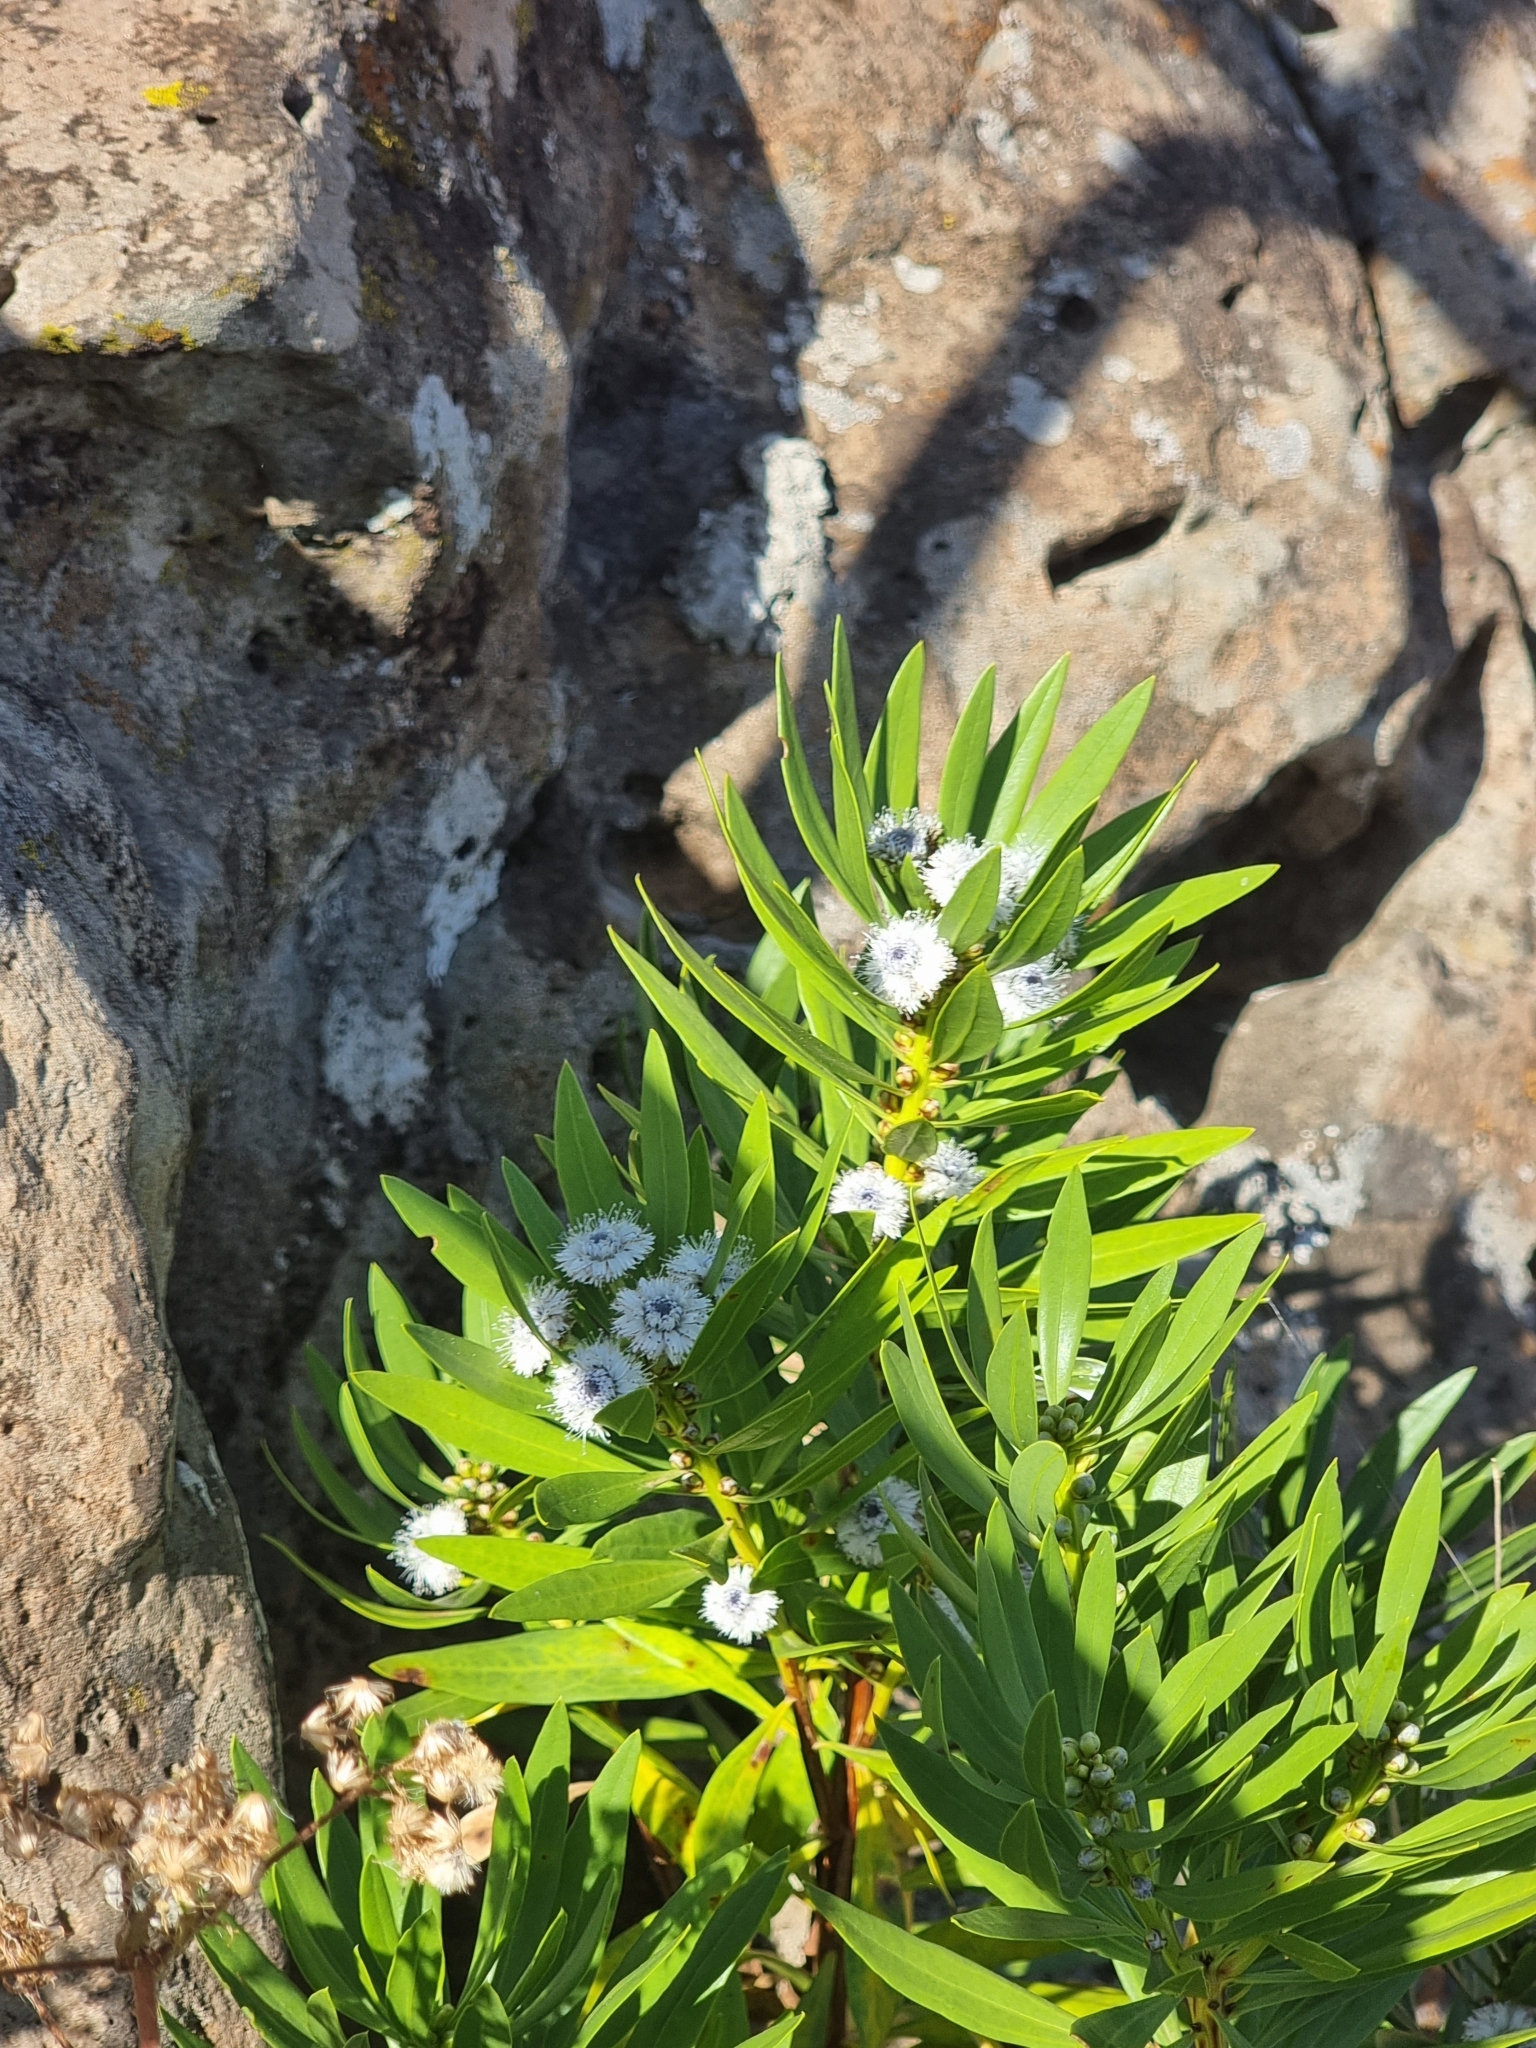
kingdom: Plantae
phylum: Tracheophyta
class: Magnoliopsida
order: Lamiales
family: Plantaginaceae
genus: Globularia
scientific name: Globularia salicina
